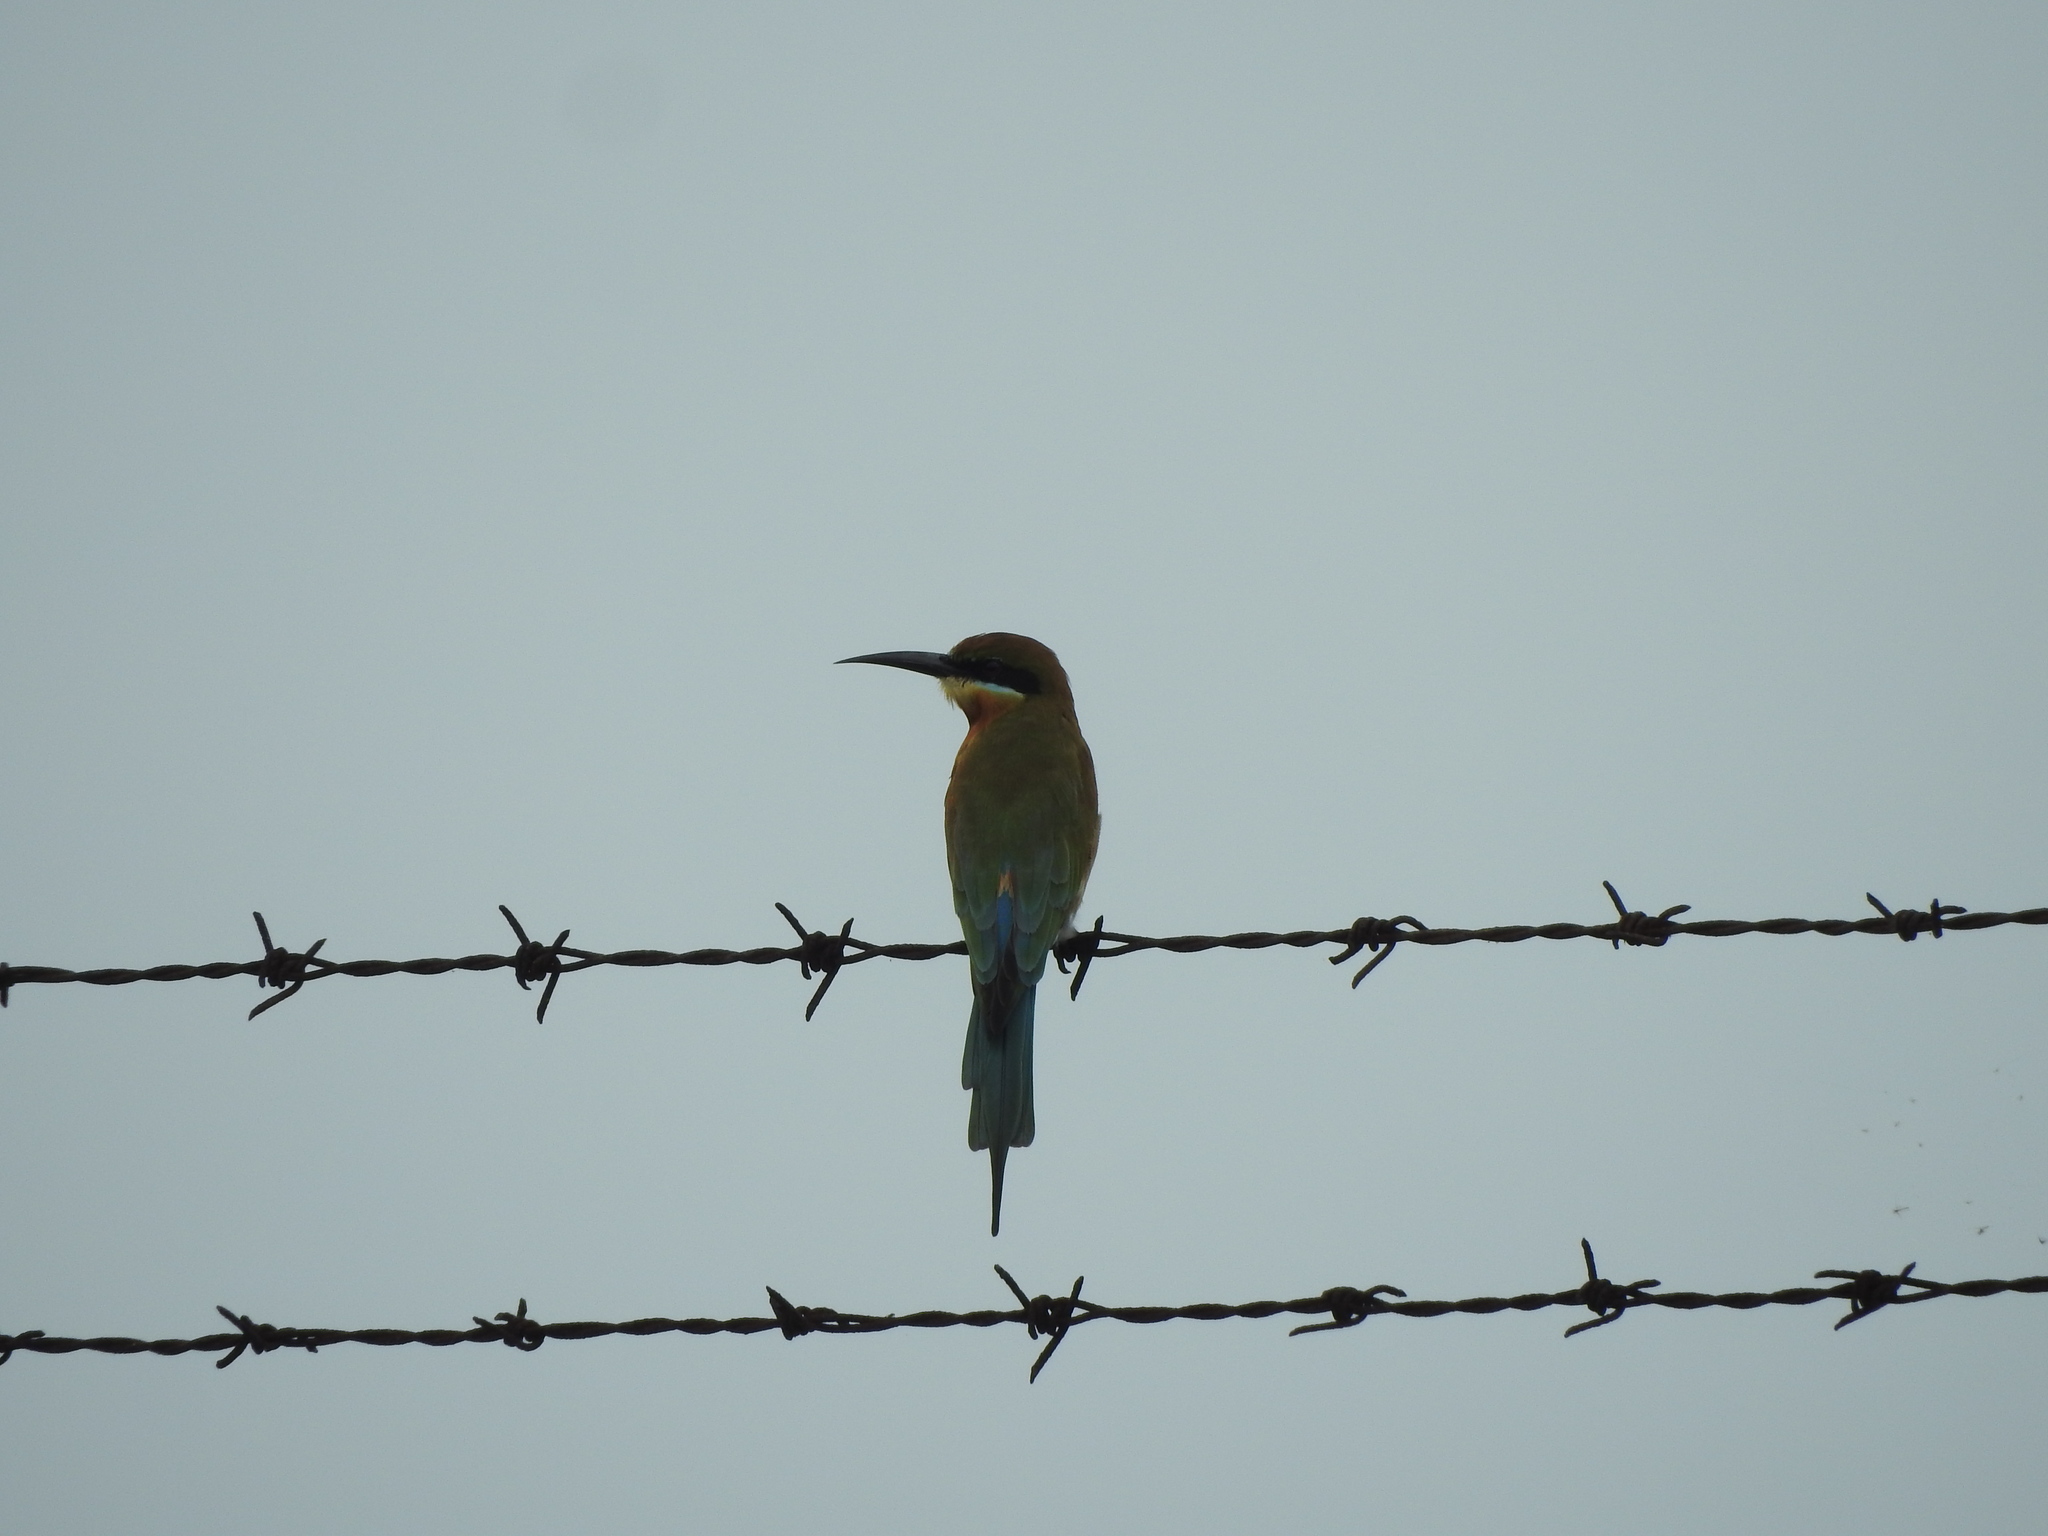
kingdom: Animalia
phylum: Chordata
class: Aves
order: Coraciiformes
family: Meropidae
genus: Merops
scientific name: Merops philippinus
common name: Blue-tailed bee-eater
